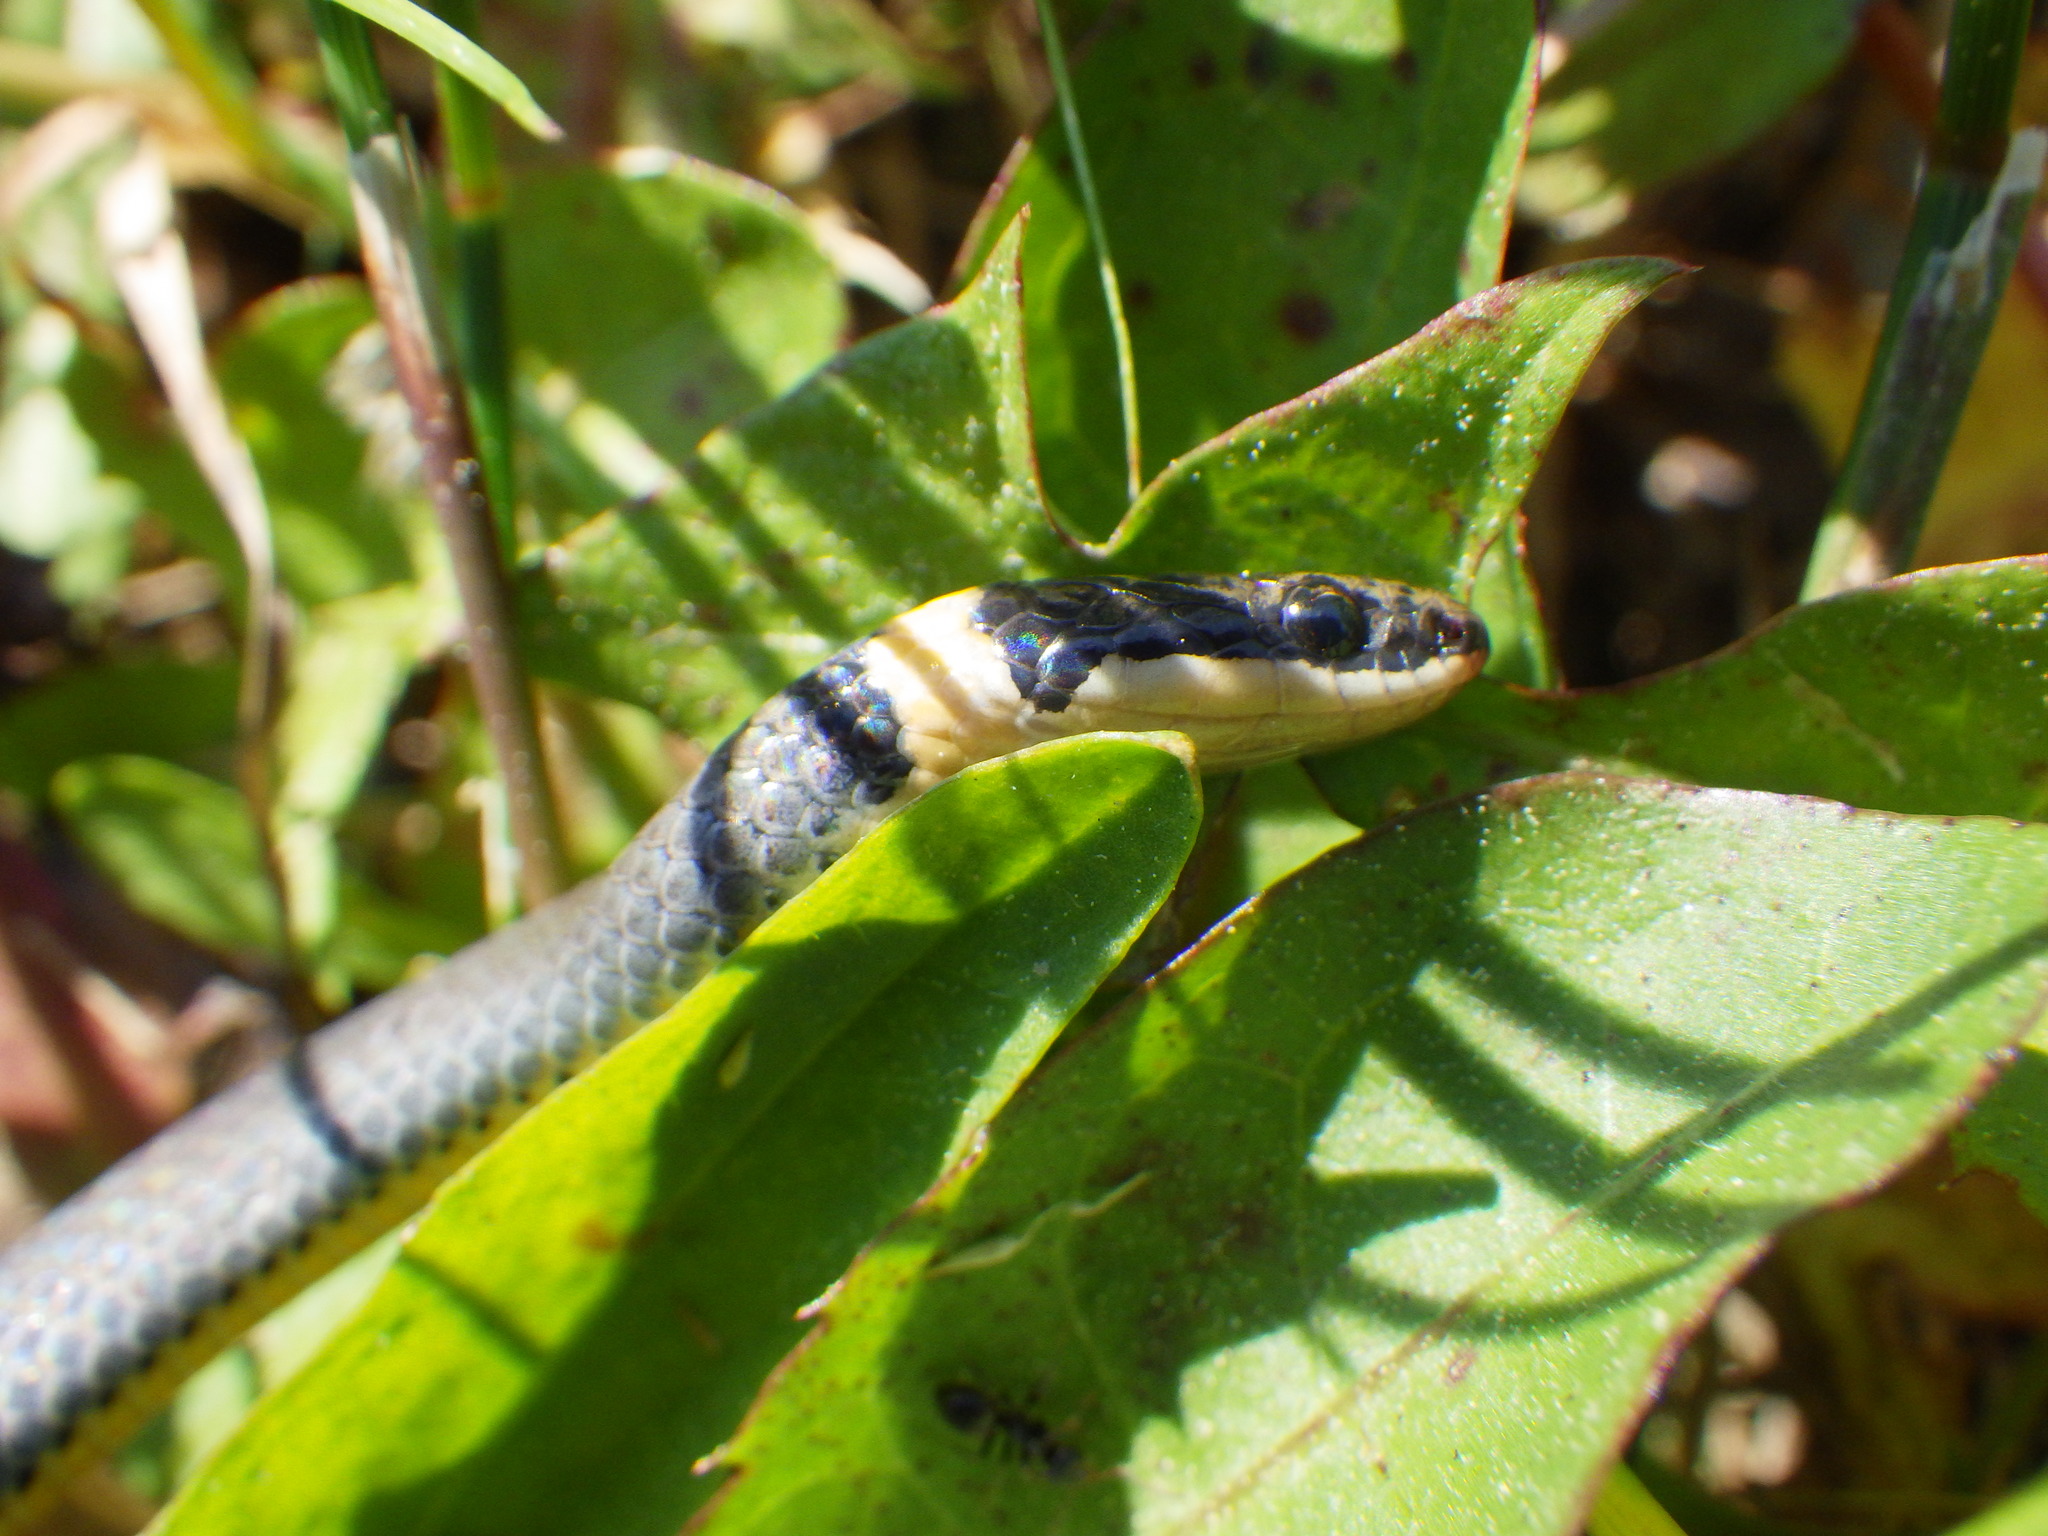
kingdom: Animalia
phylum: Chordata
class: Squamata
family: Colubridae
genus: Diadophis
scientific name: Diadophis punctatus
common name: Ringneck snake
